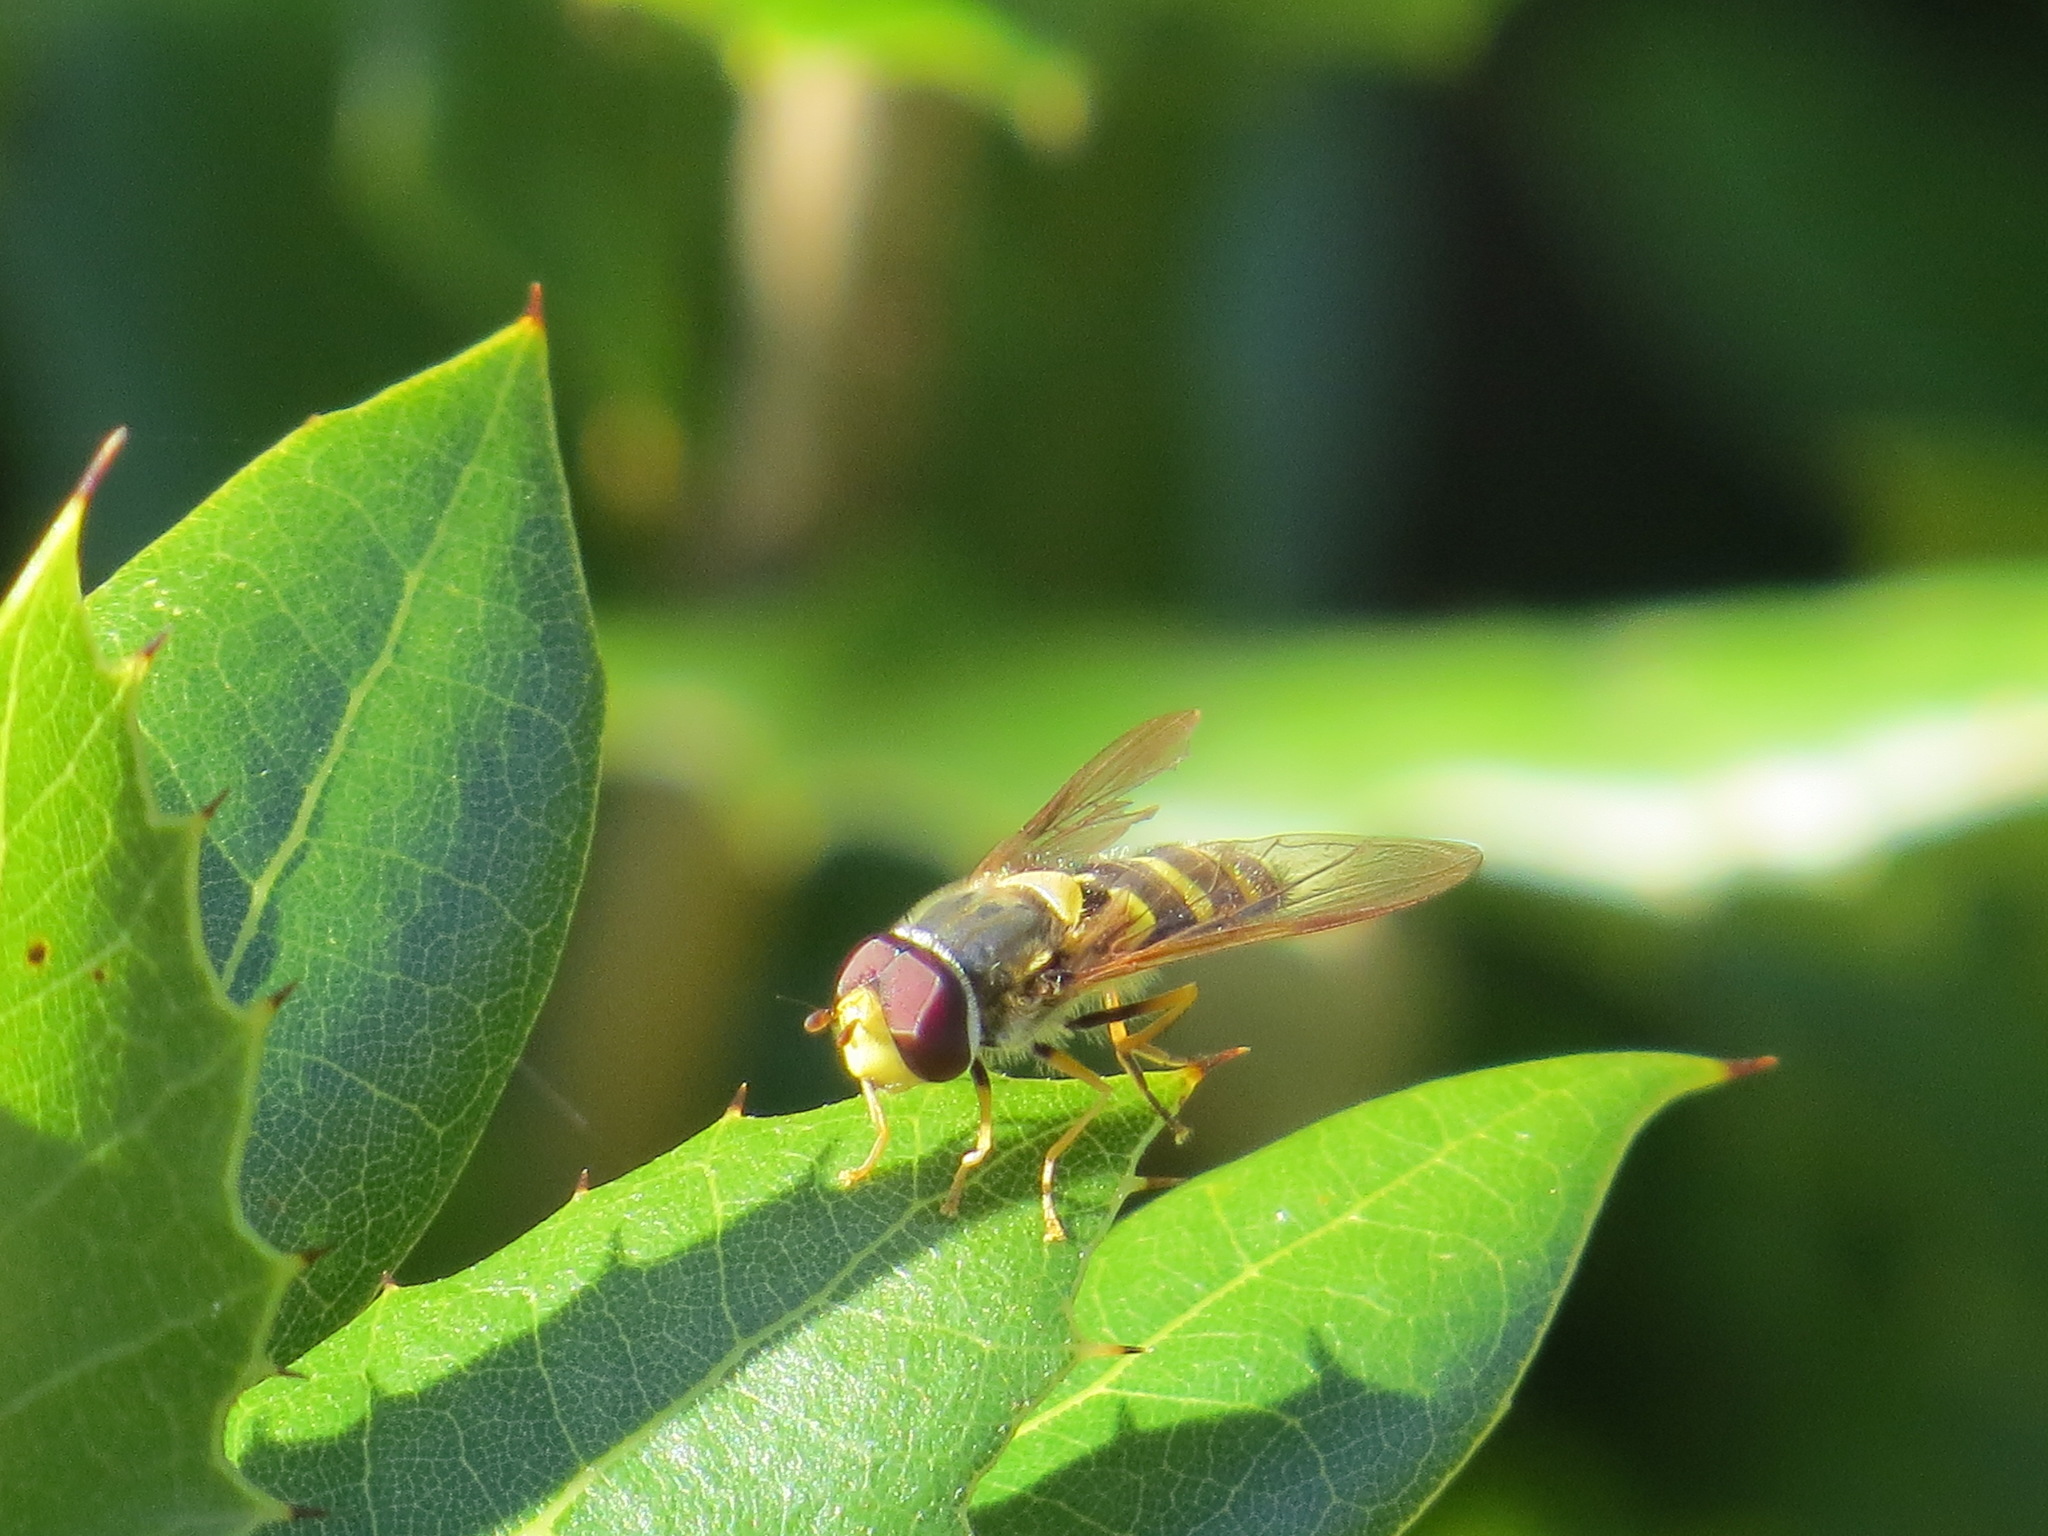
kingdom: Animalia
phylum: Arthropoda
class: Insecta
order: Diptera
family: Syrphidae
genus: Syrphus
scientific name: Syrphus opinator
